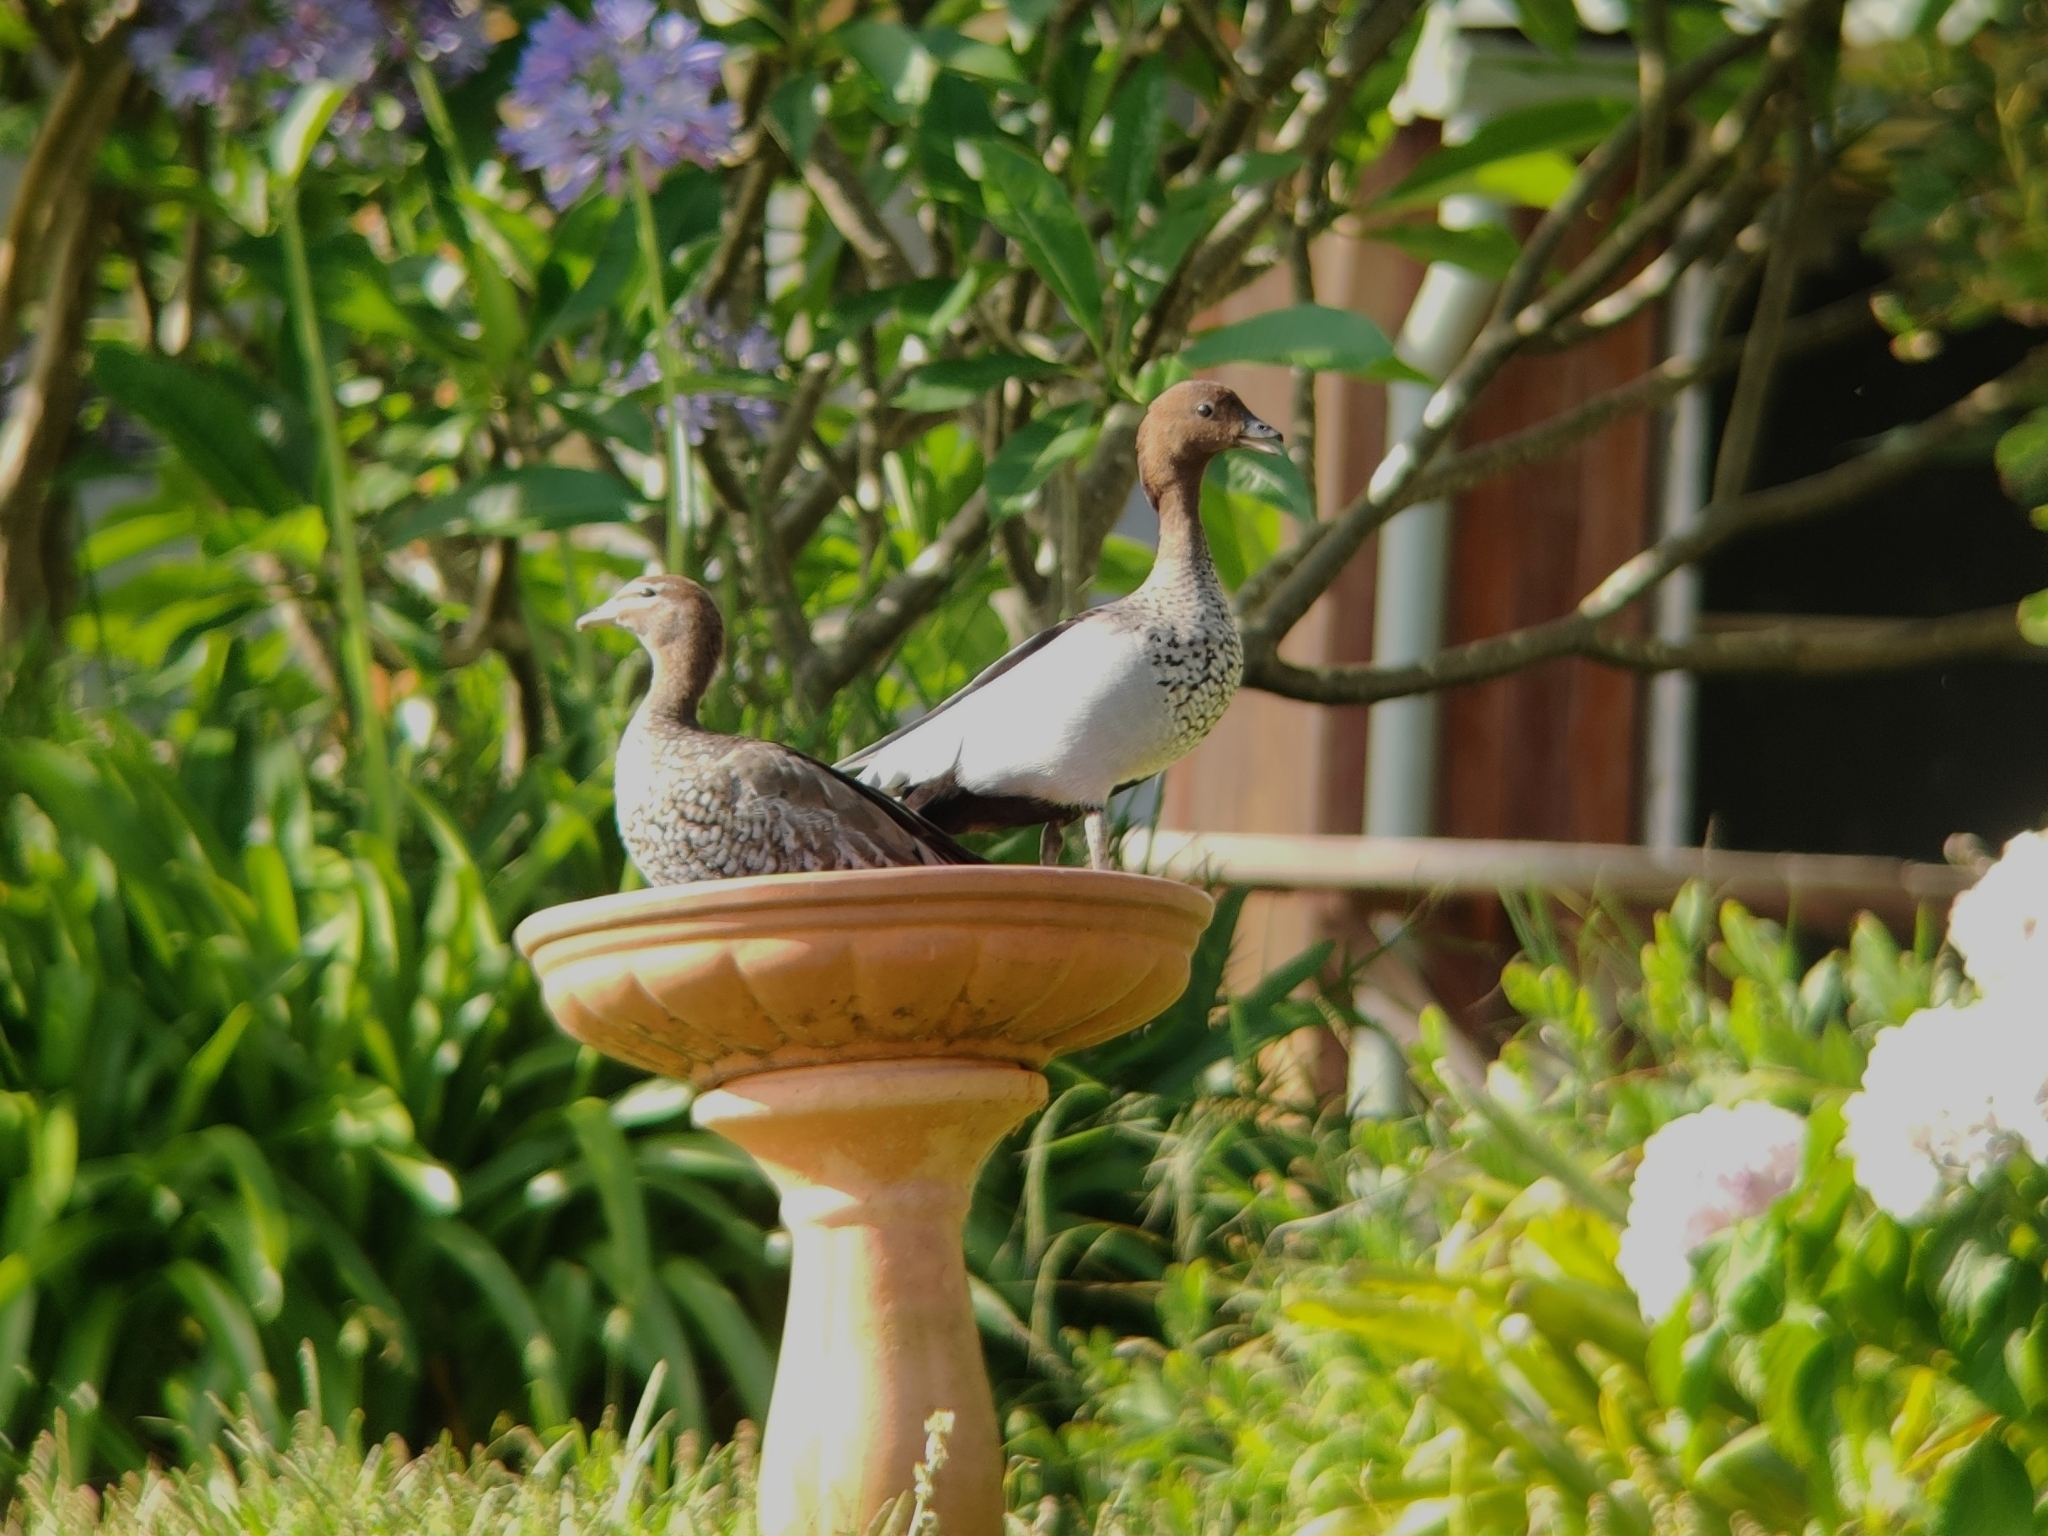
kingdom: Animalia
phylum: Chordata
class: Aves
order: Anseriformes
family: Anatidae
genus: Chenonetta
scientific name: Chenonetta jubata
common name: Maned duck
